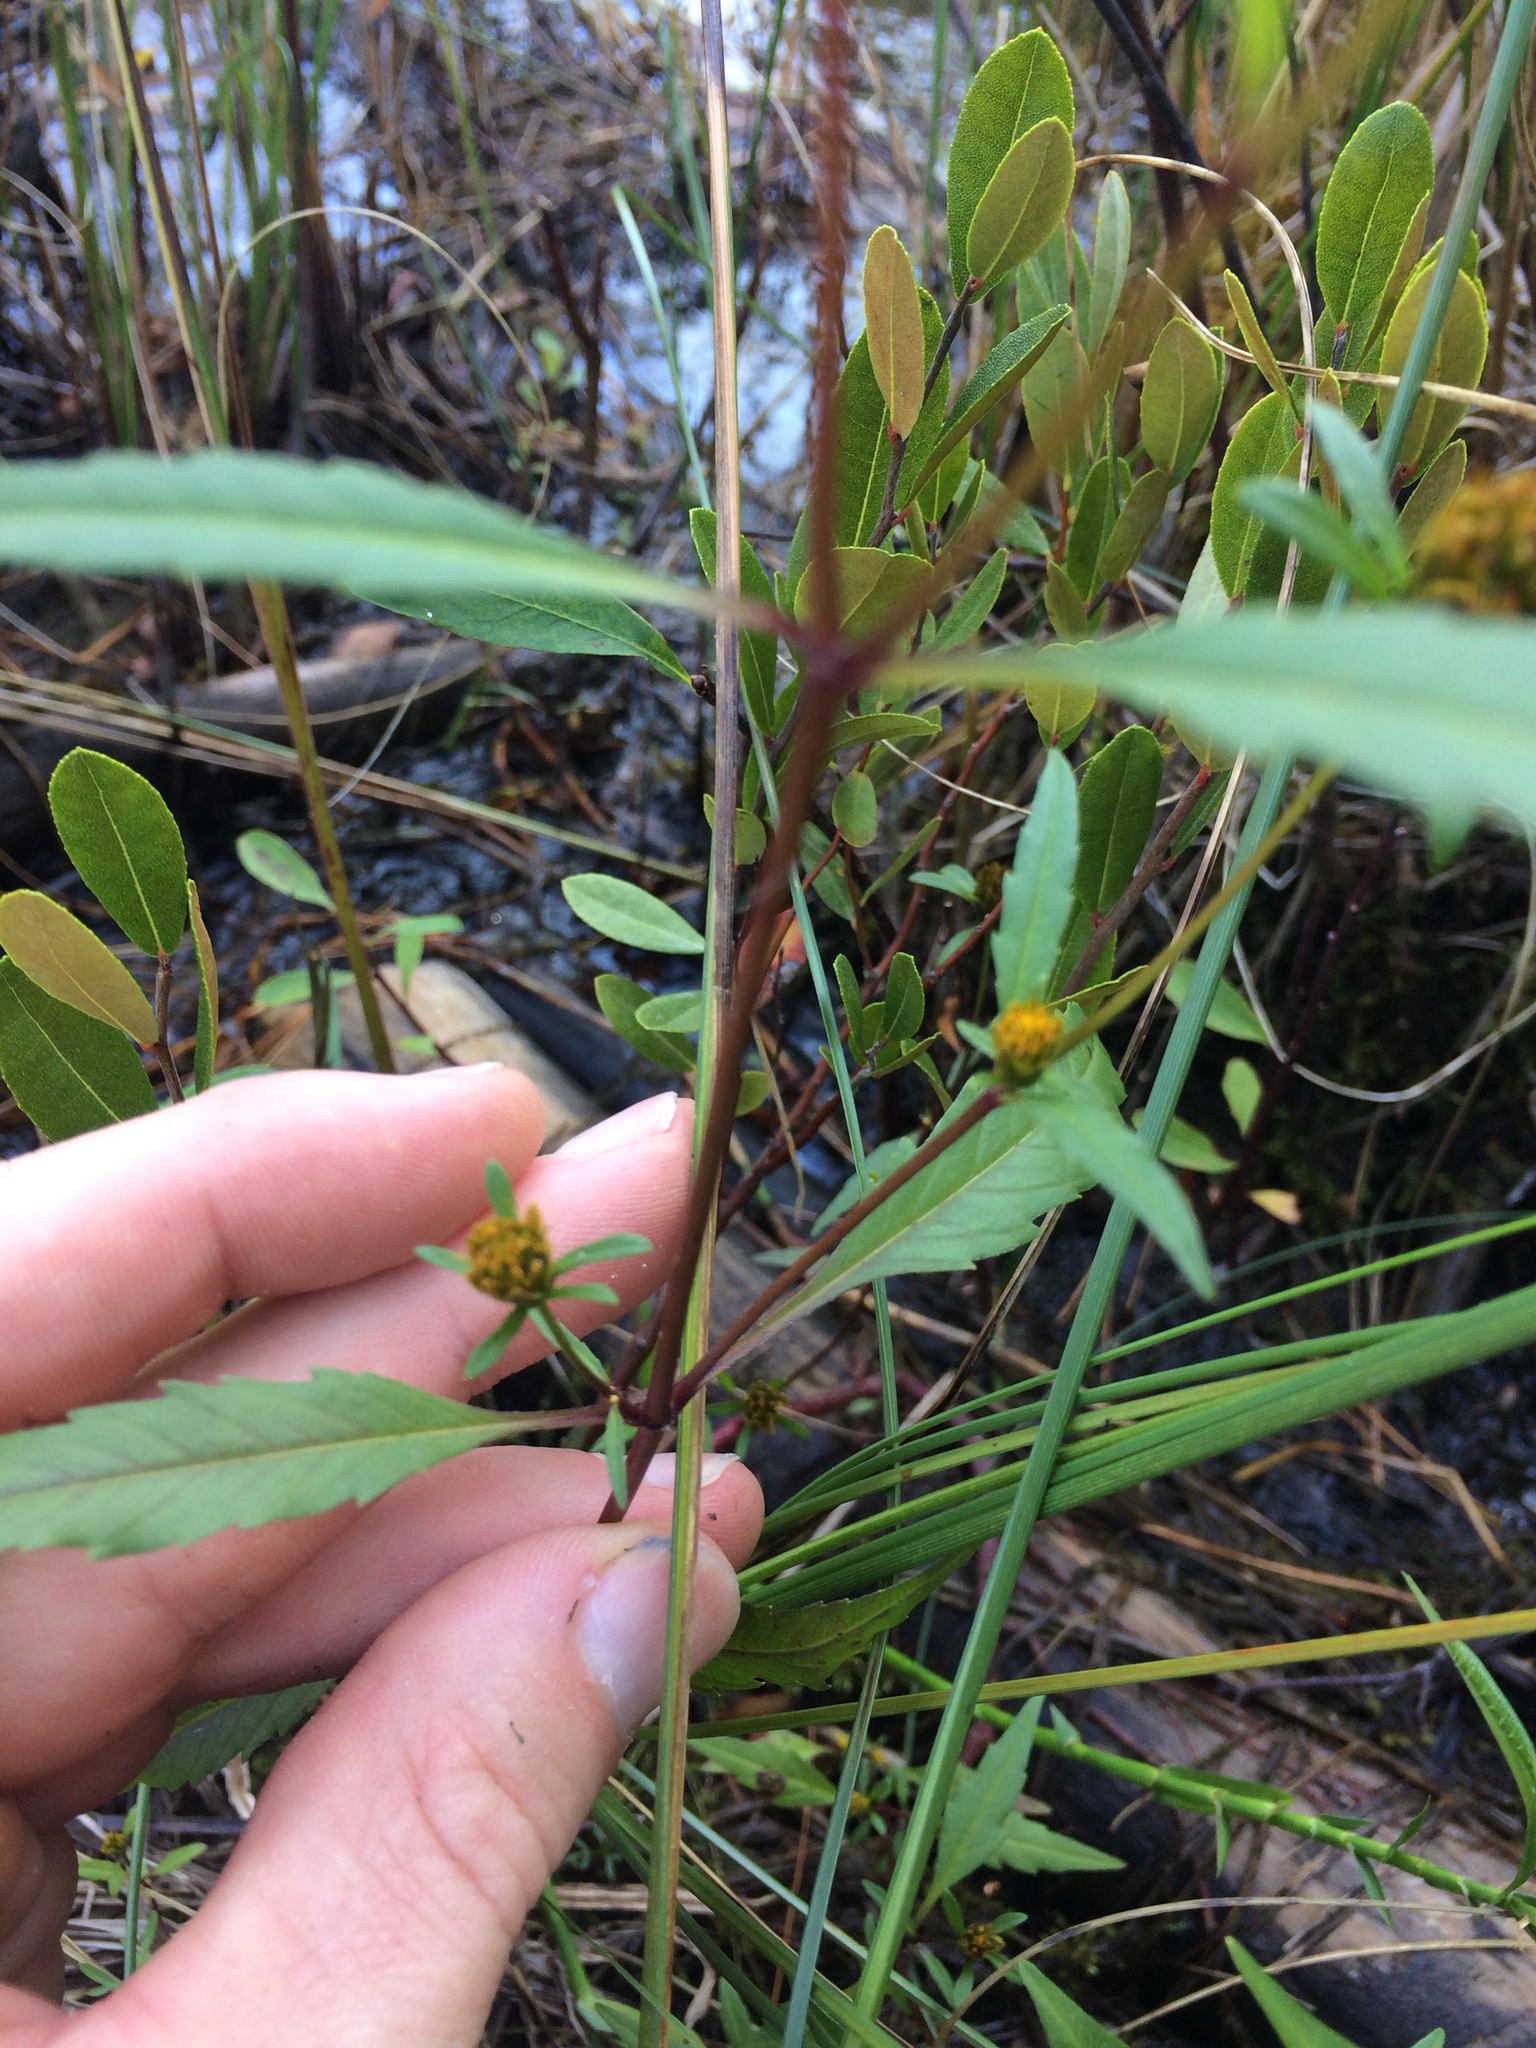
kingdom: Plantae
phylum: Tracheophyta
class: Magnoliopsida
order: Asterales
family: Asteraceae
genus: Bidens
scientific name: Bidens connata
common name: London bur-marigold
